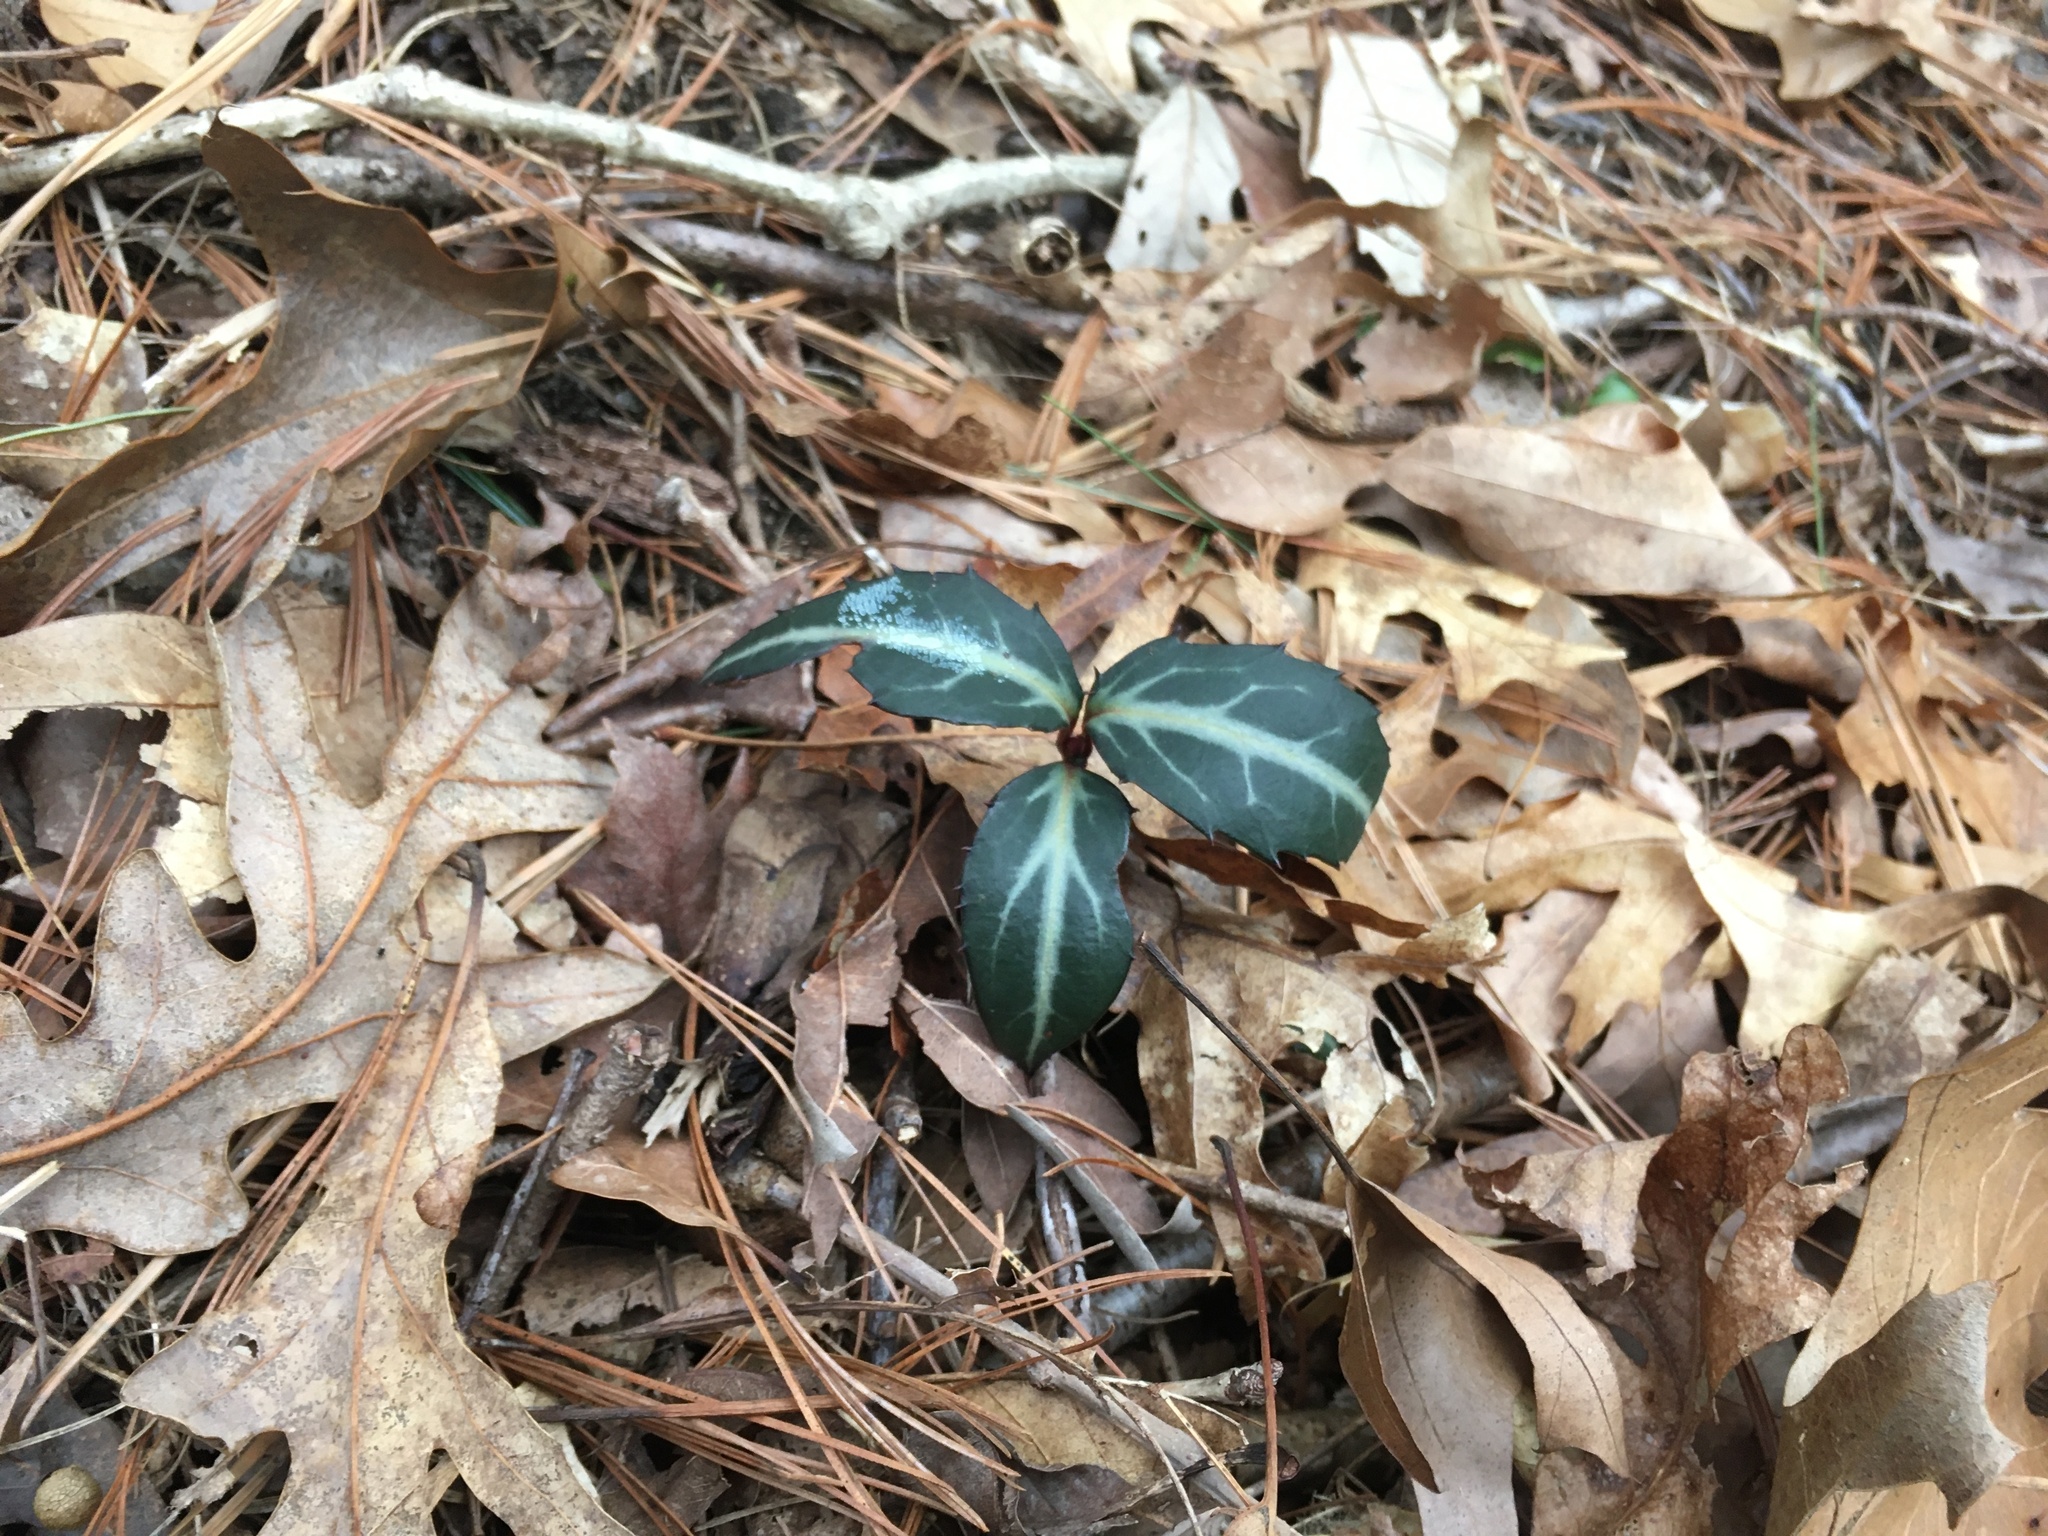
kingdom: Plantae
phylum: Tracheophyta
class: Magnoliopsida
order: Ericales
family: Ericaceae
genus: Chimaphila
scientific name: Chimaphila maculata
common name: Spotted pipsissewa
